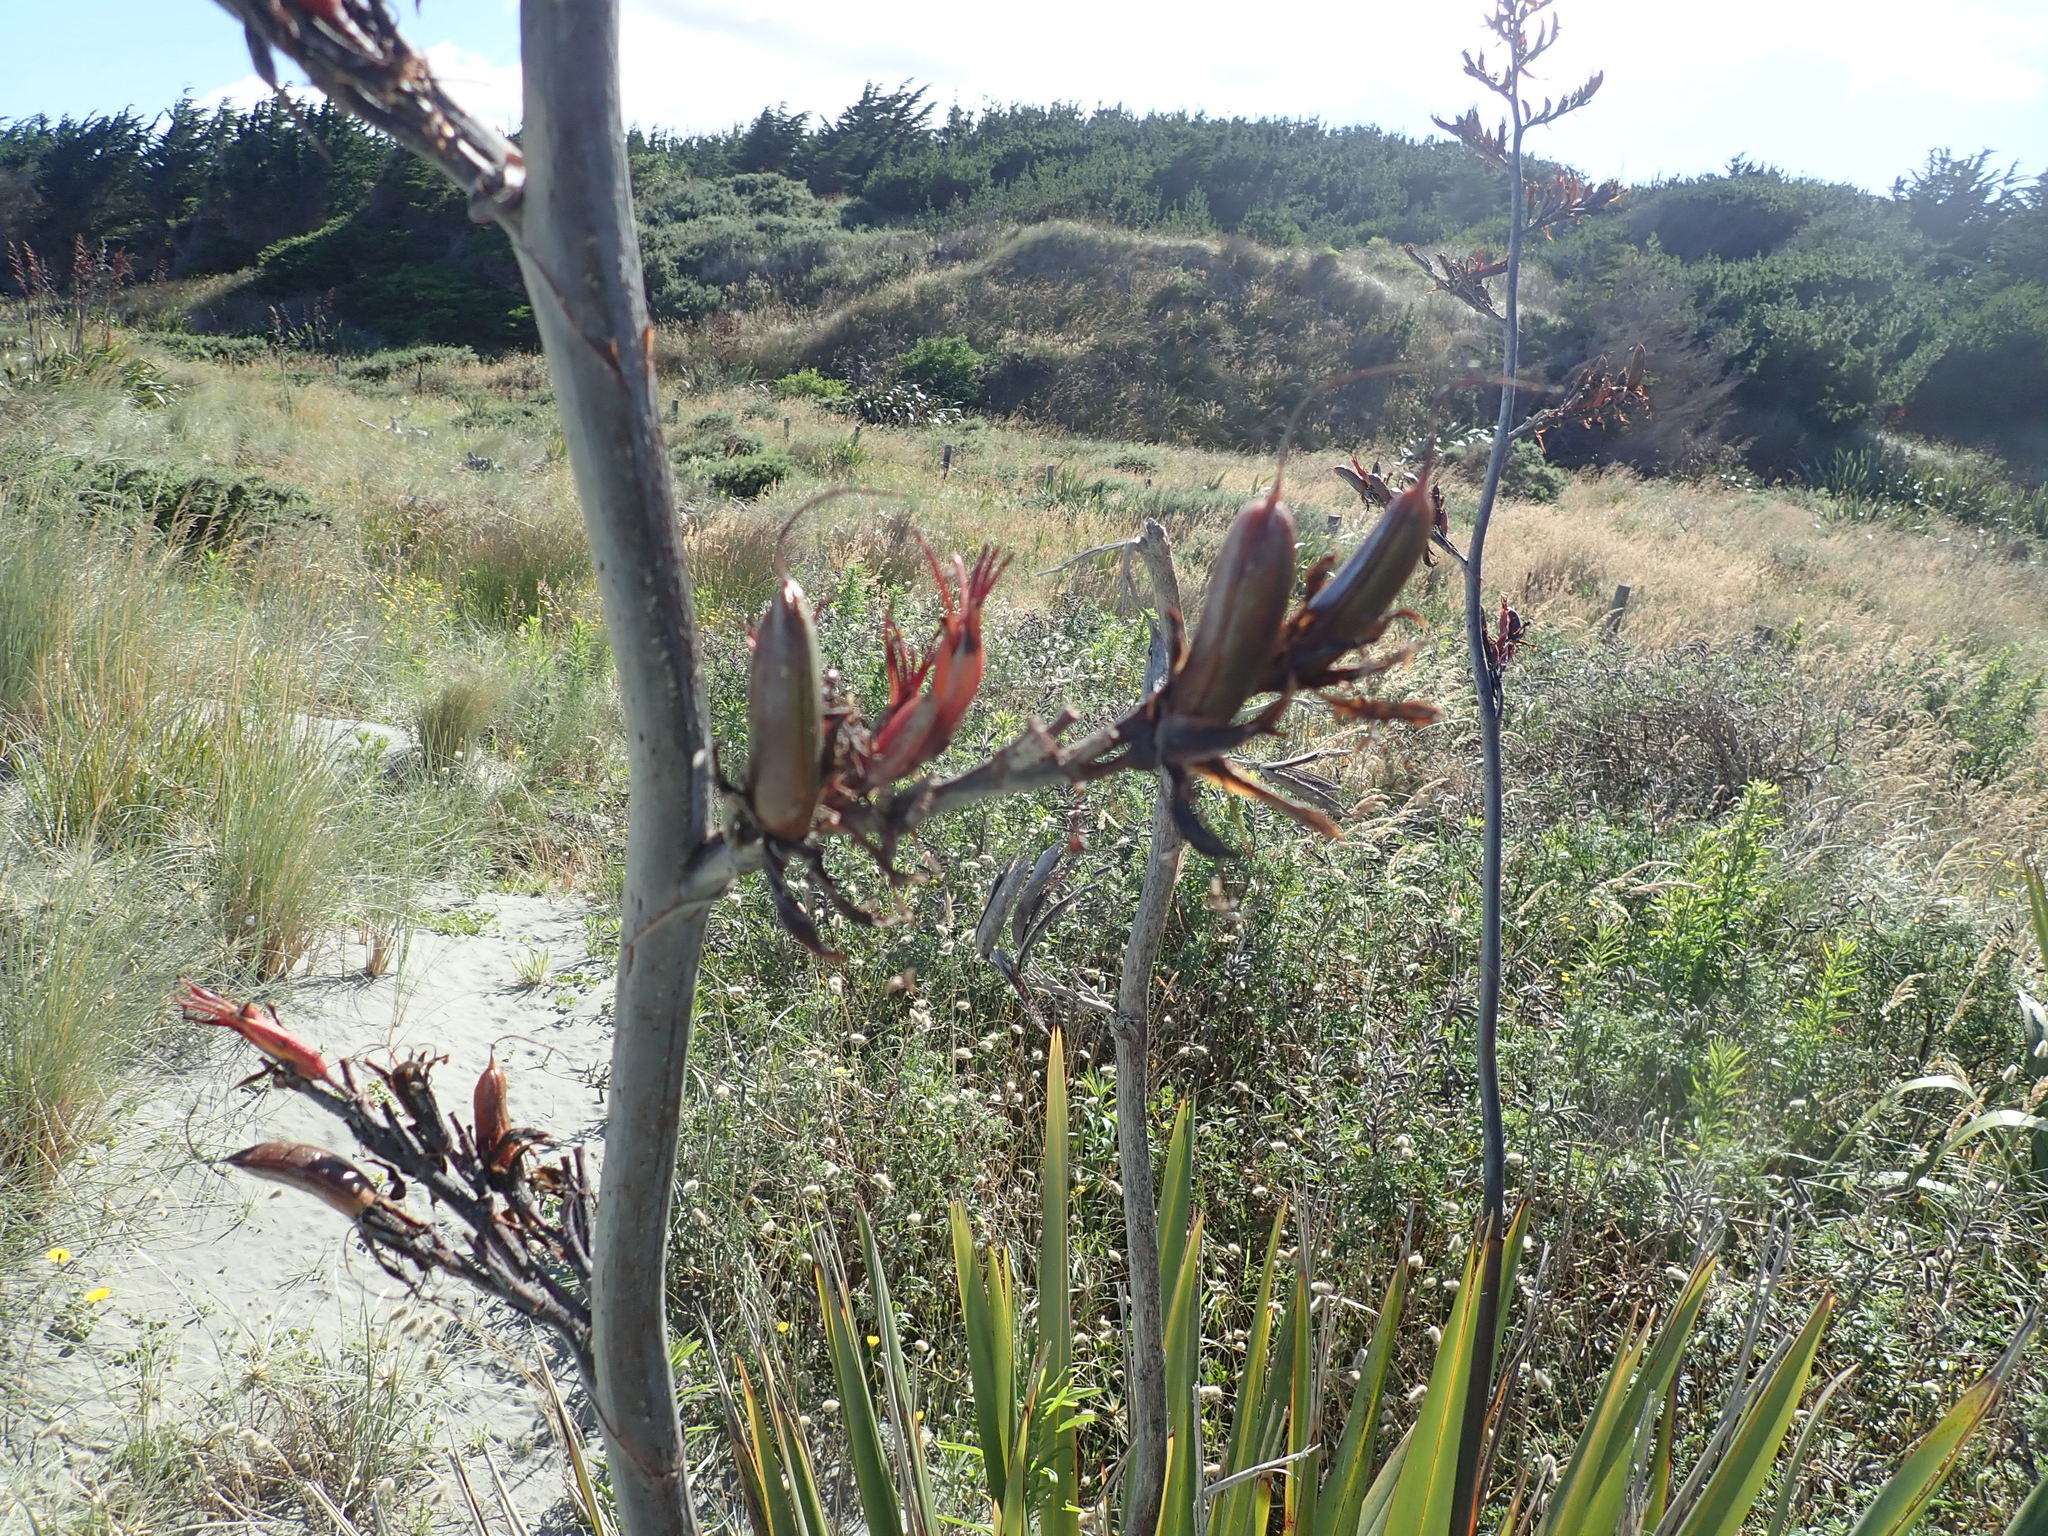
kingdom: Plantae
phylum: Tracheophyta
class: Liliopsida
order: Asparagales
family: Asphodelaceae
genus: Phormium
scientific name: Phormium tenax
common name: New zealand flax
